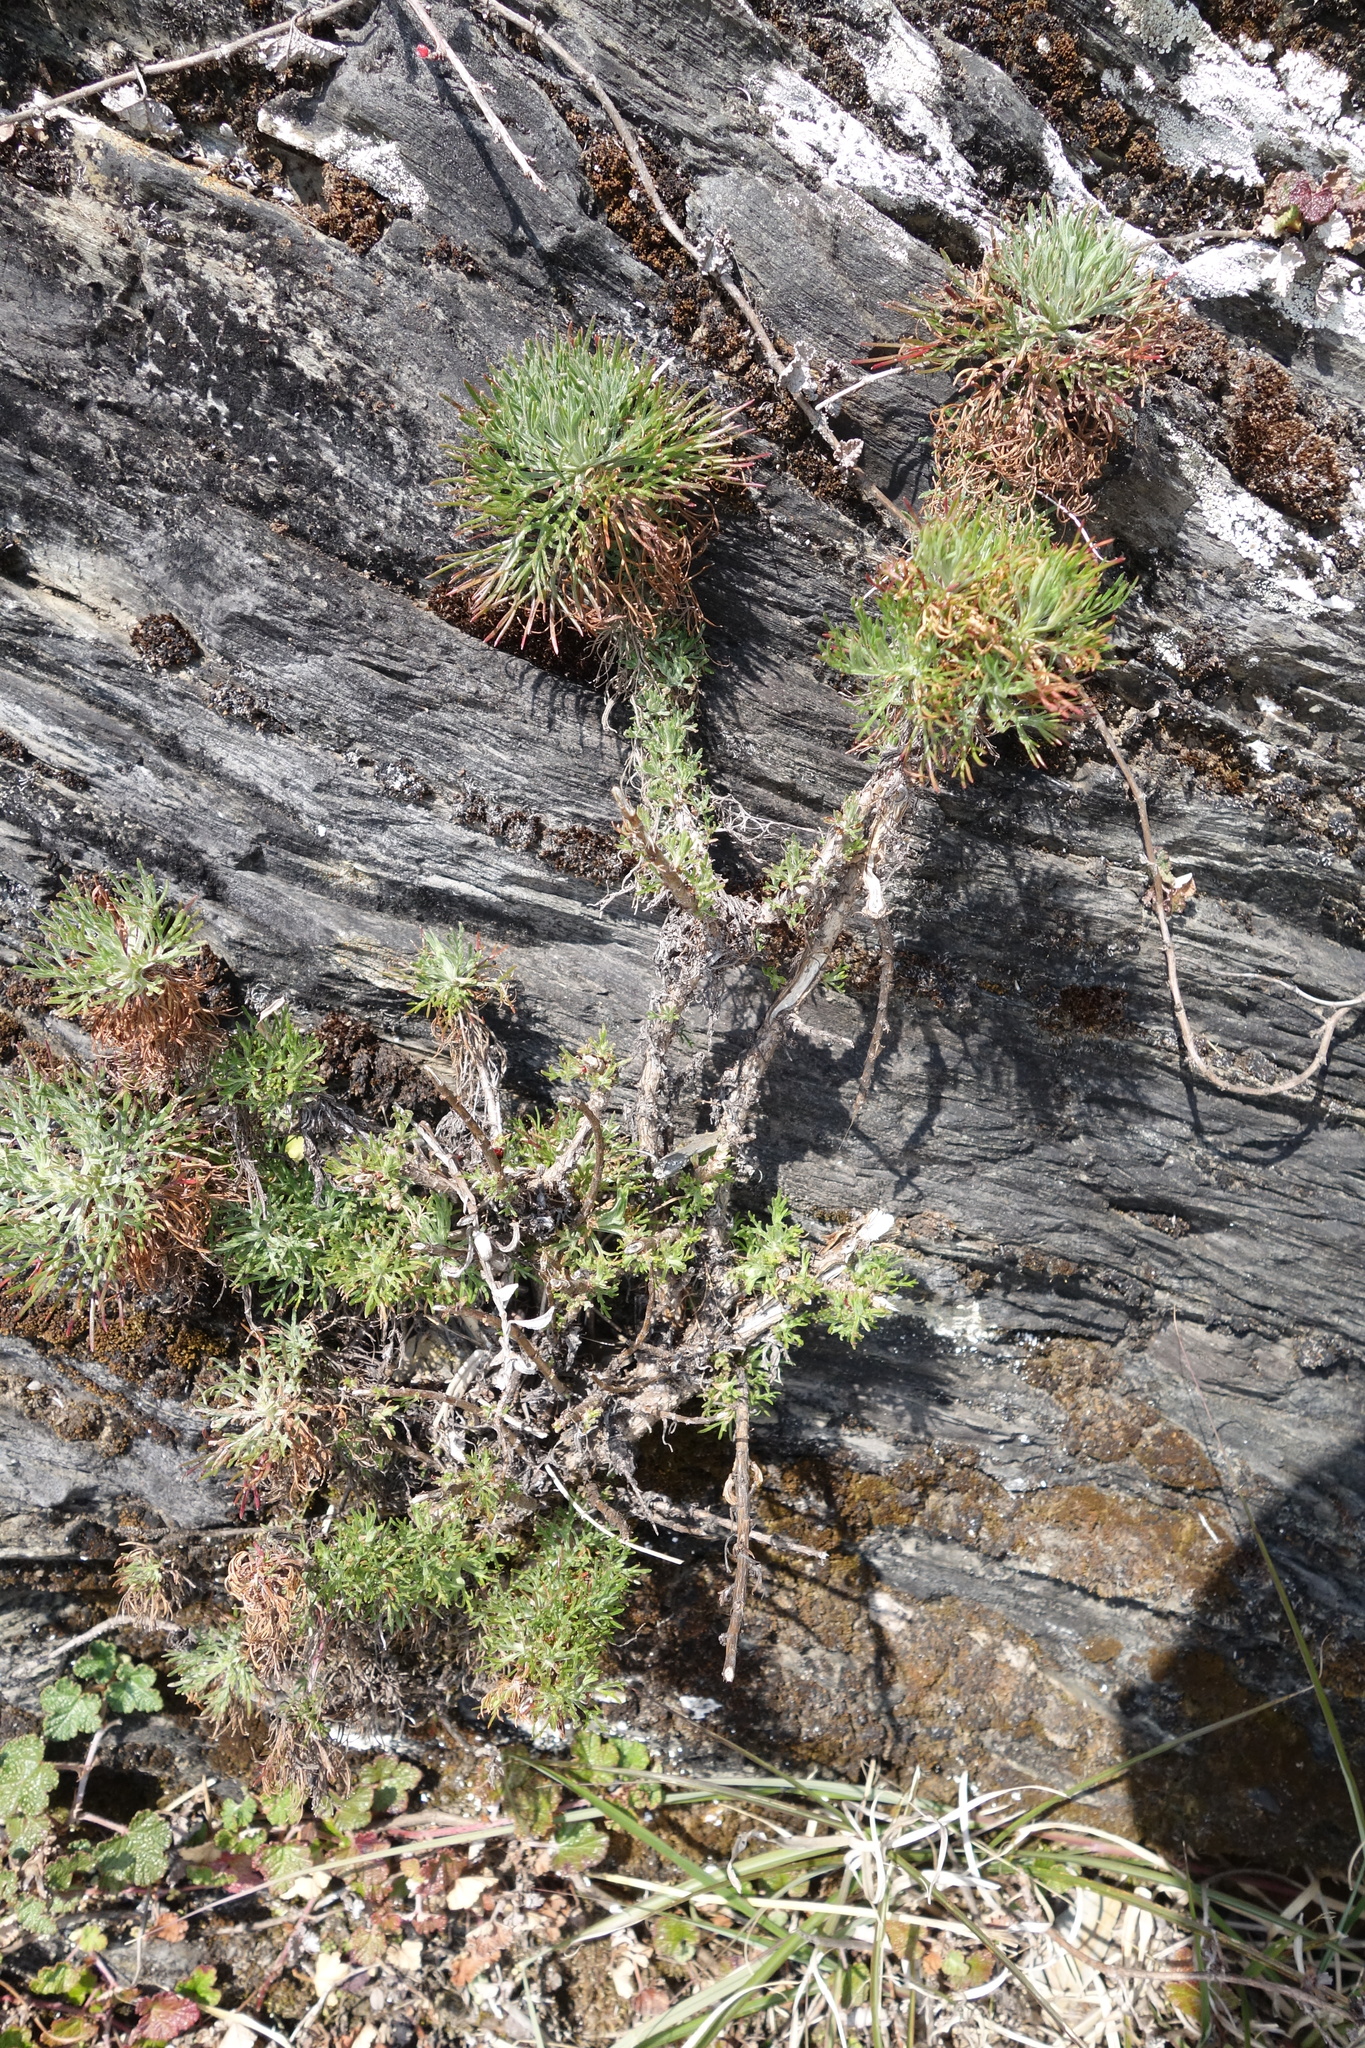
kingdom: Plantae
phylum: Tracheophyta
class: Magnoliopsida
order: Asterales
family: Asteraceae
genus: Artemisia
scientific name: Artemisia morrisonensis
